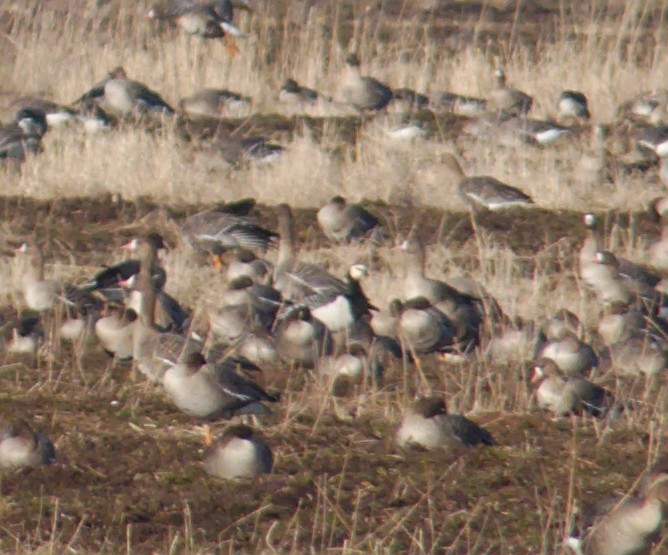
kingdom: Animalia
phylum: Chordata
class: Aves
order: Anseriformes
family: Anatidae
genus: Branta
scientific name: Branta leucopsis
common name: Barnacle goose
